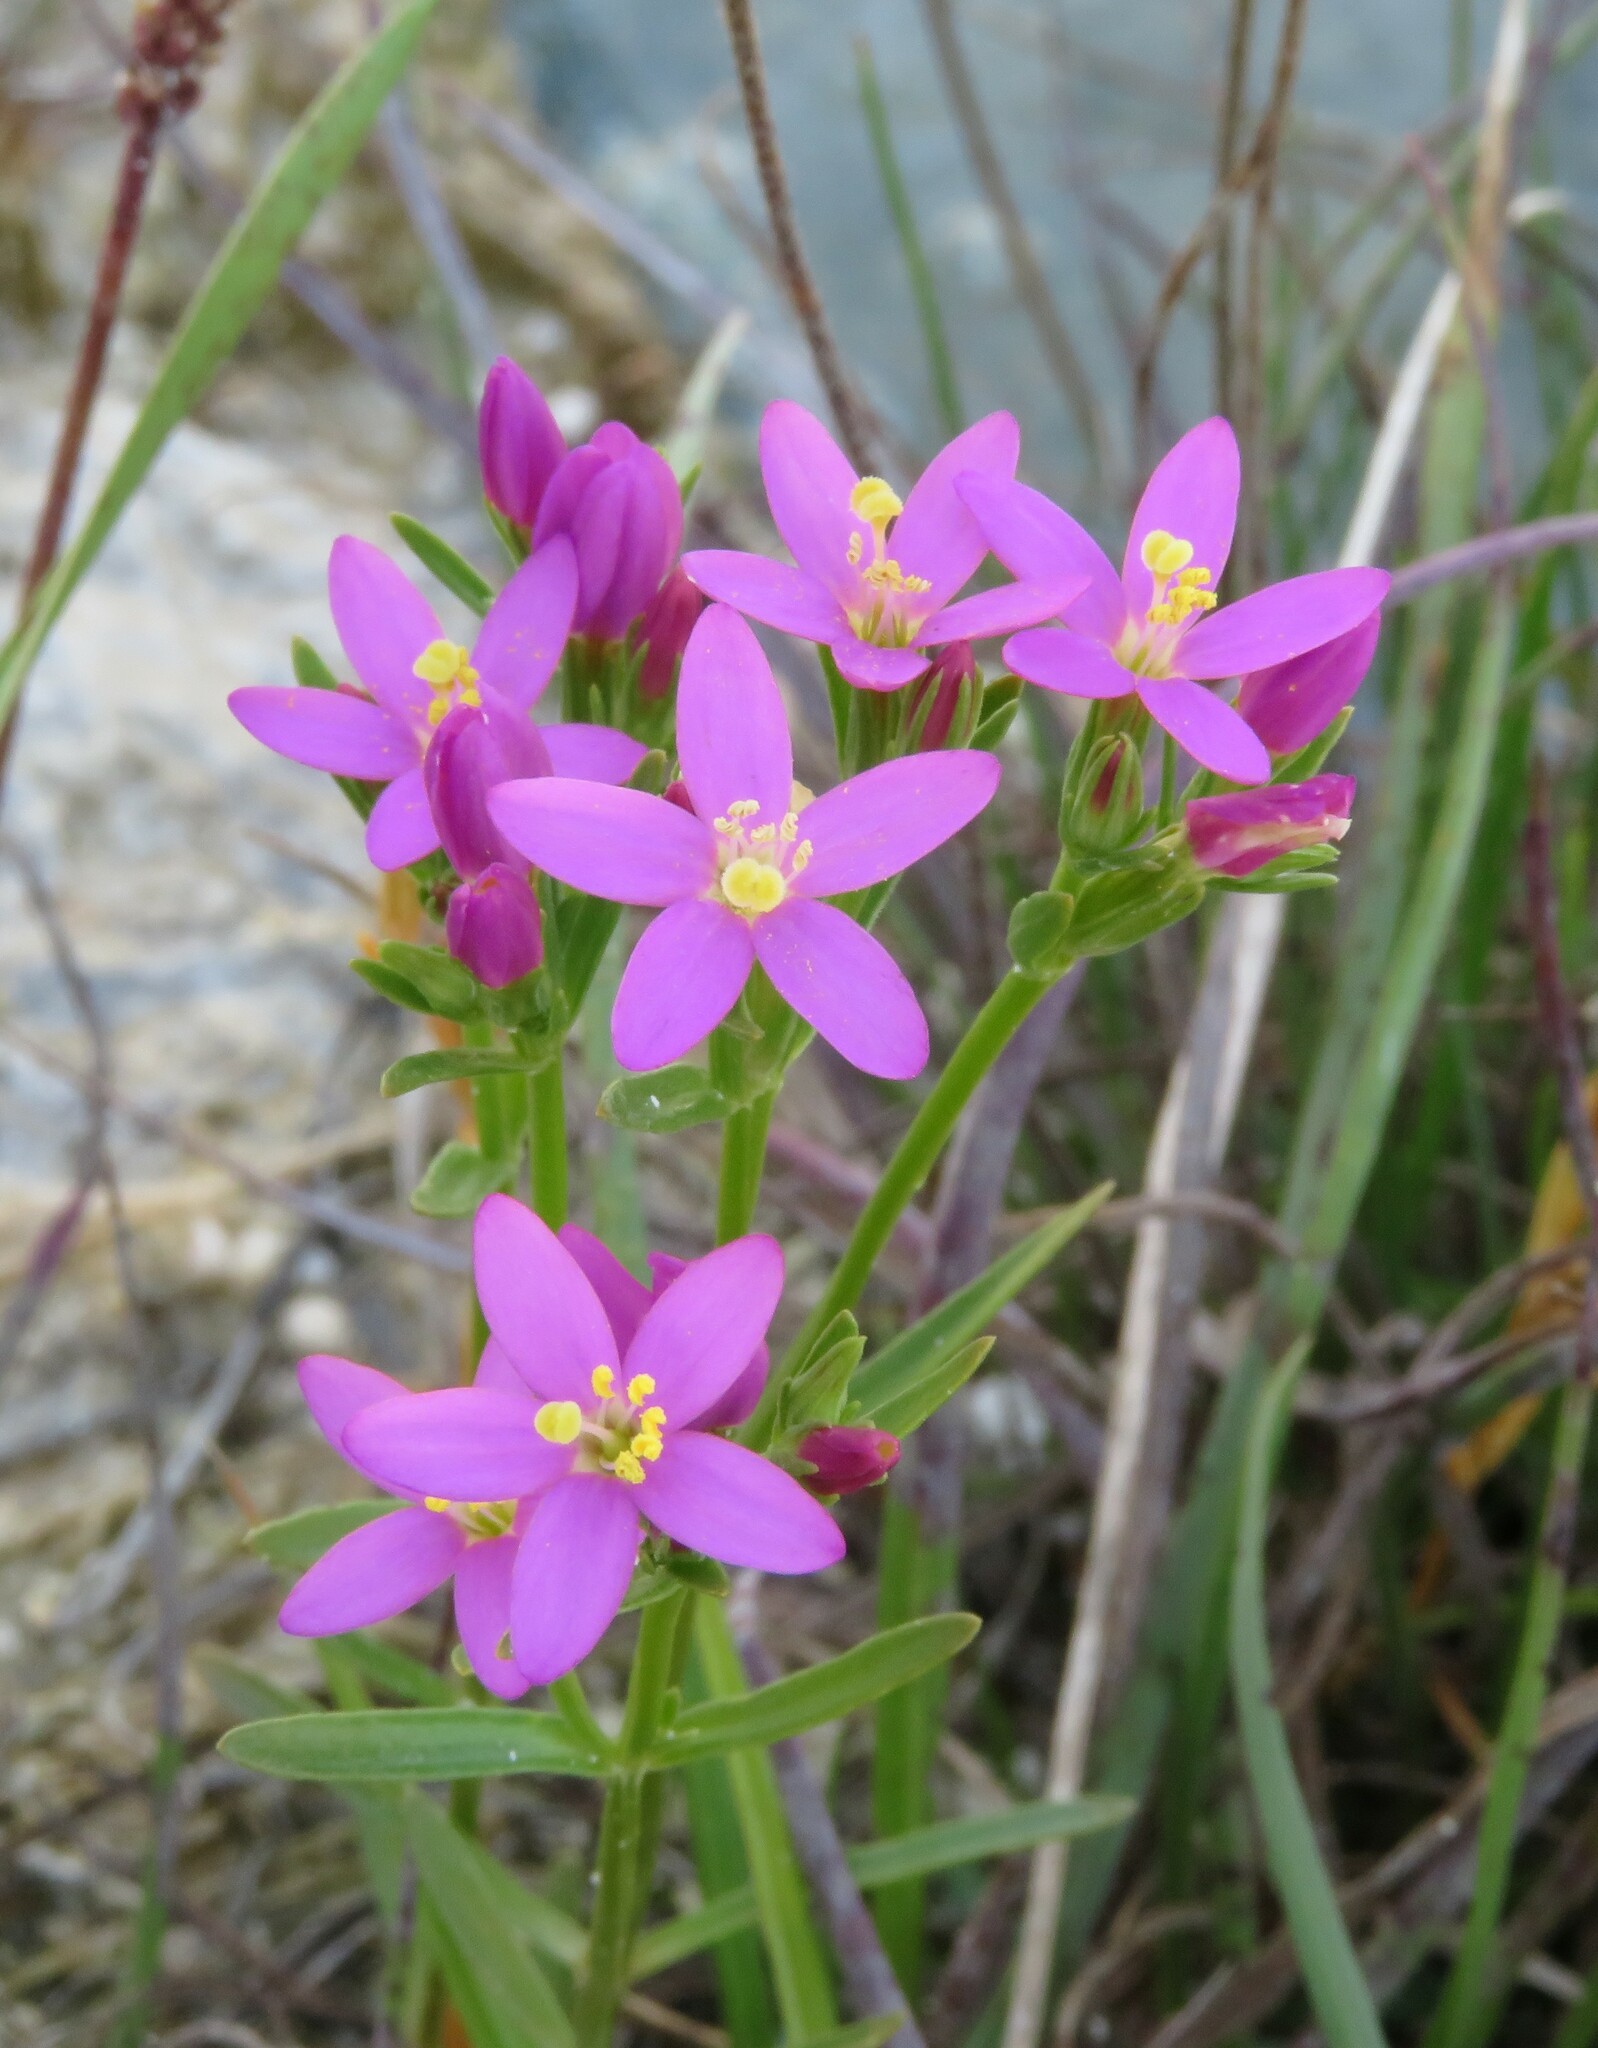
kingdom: Plantae
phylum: Tracheophyta
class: Magnoliopsida
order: Gentianales
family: Gentianaceae
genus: Centaurium
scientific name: Centaurium littorale
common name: Seaside centaury
